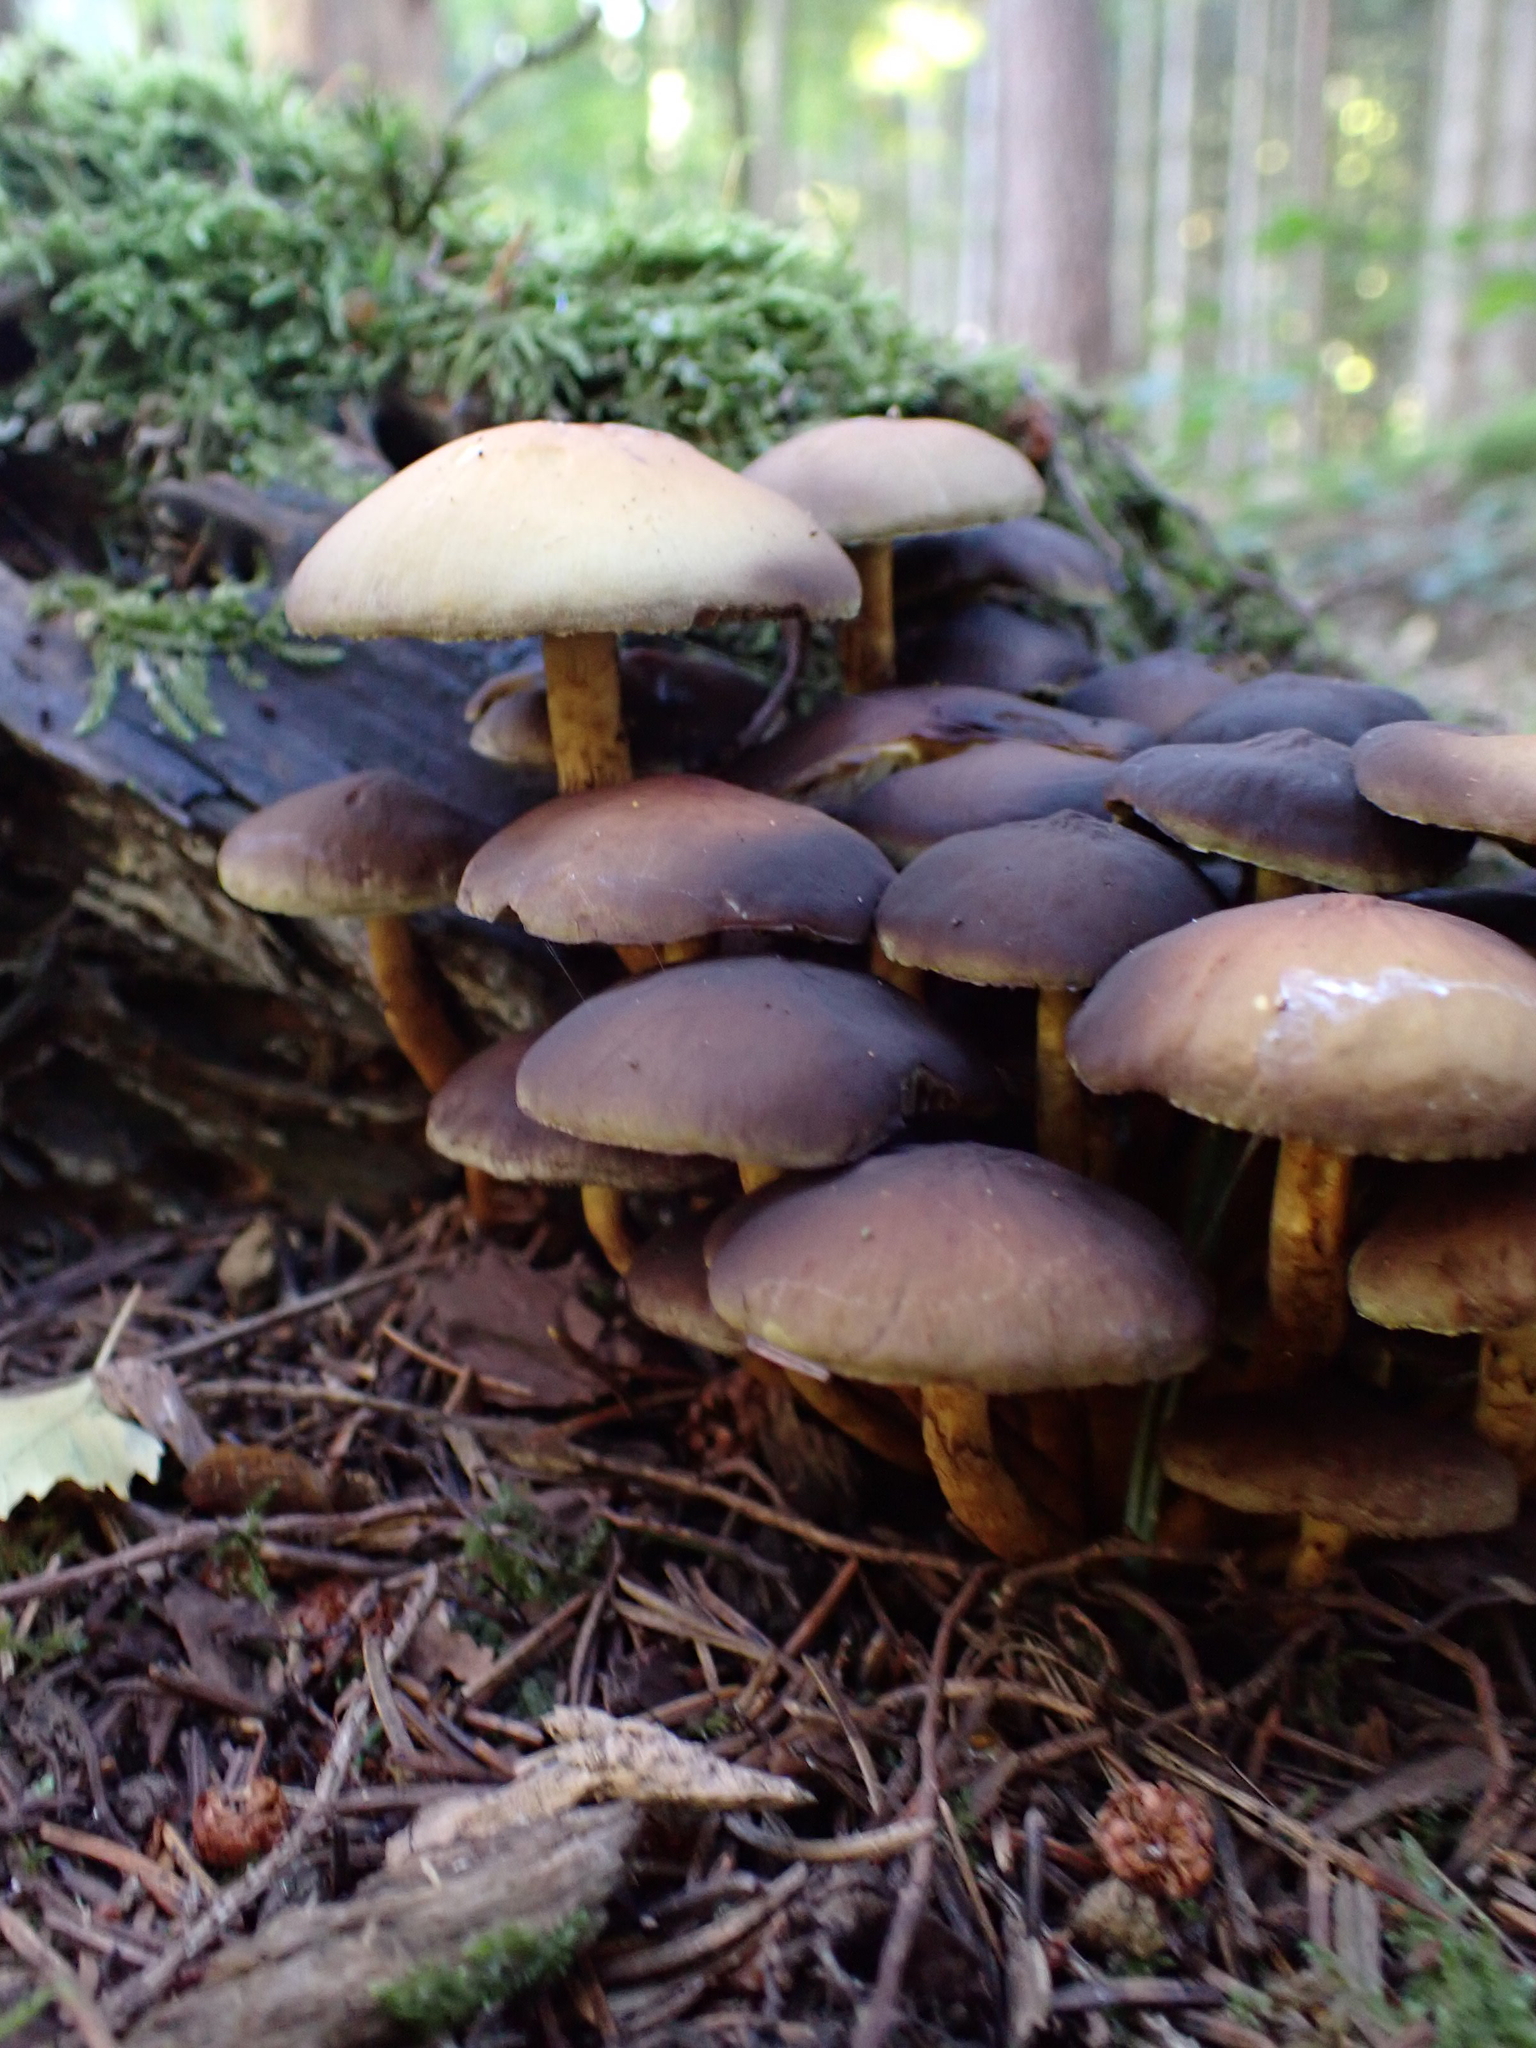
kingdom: Fungi
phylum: Basidiomycota
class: Agaricomycetes
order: Agaricales
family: Strophariaceae
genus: Hypholoma
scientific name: Hypholoma fasciculare
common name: Sulphur tuft
